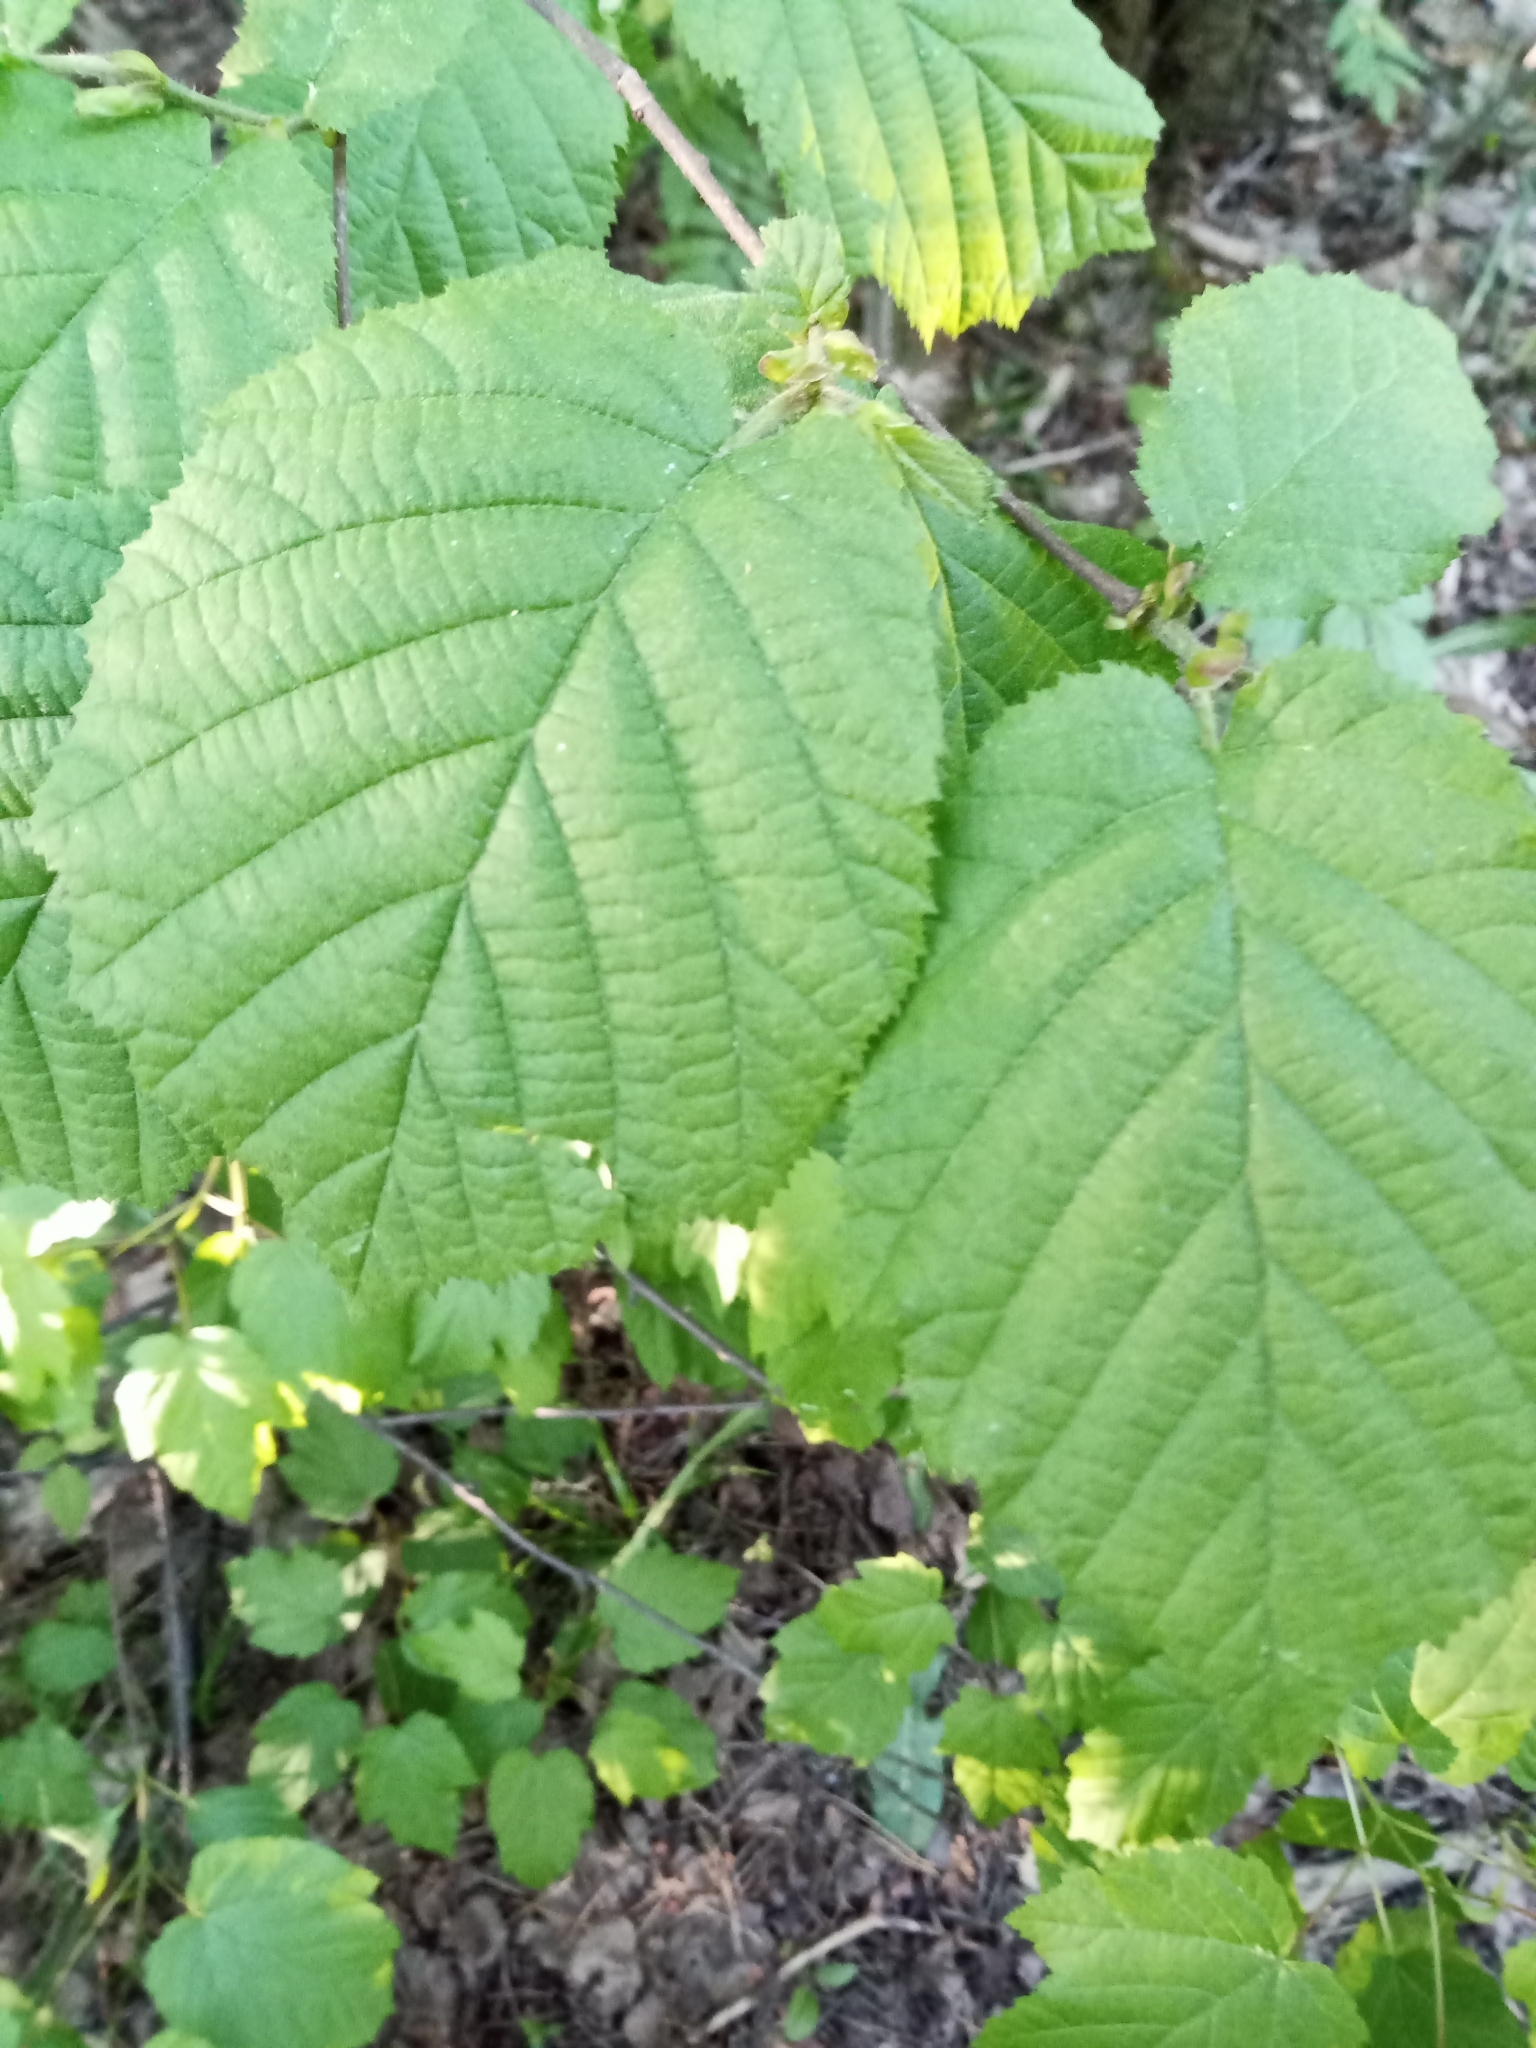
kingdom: Plantae
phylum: Tracheophyta
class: Magnoliopsida
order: Fagales
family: Betulaceae
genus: Corylus
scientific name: Corylus avellana
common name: European hazel
